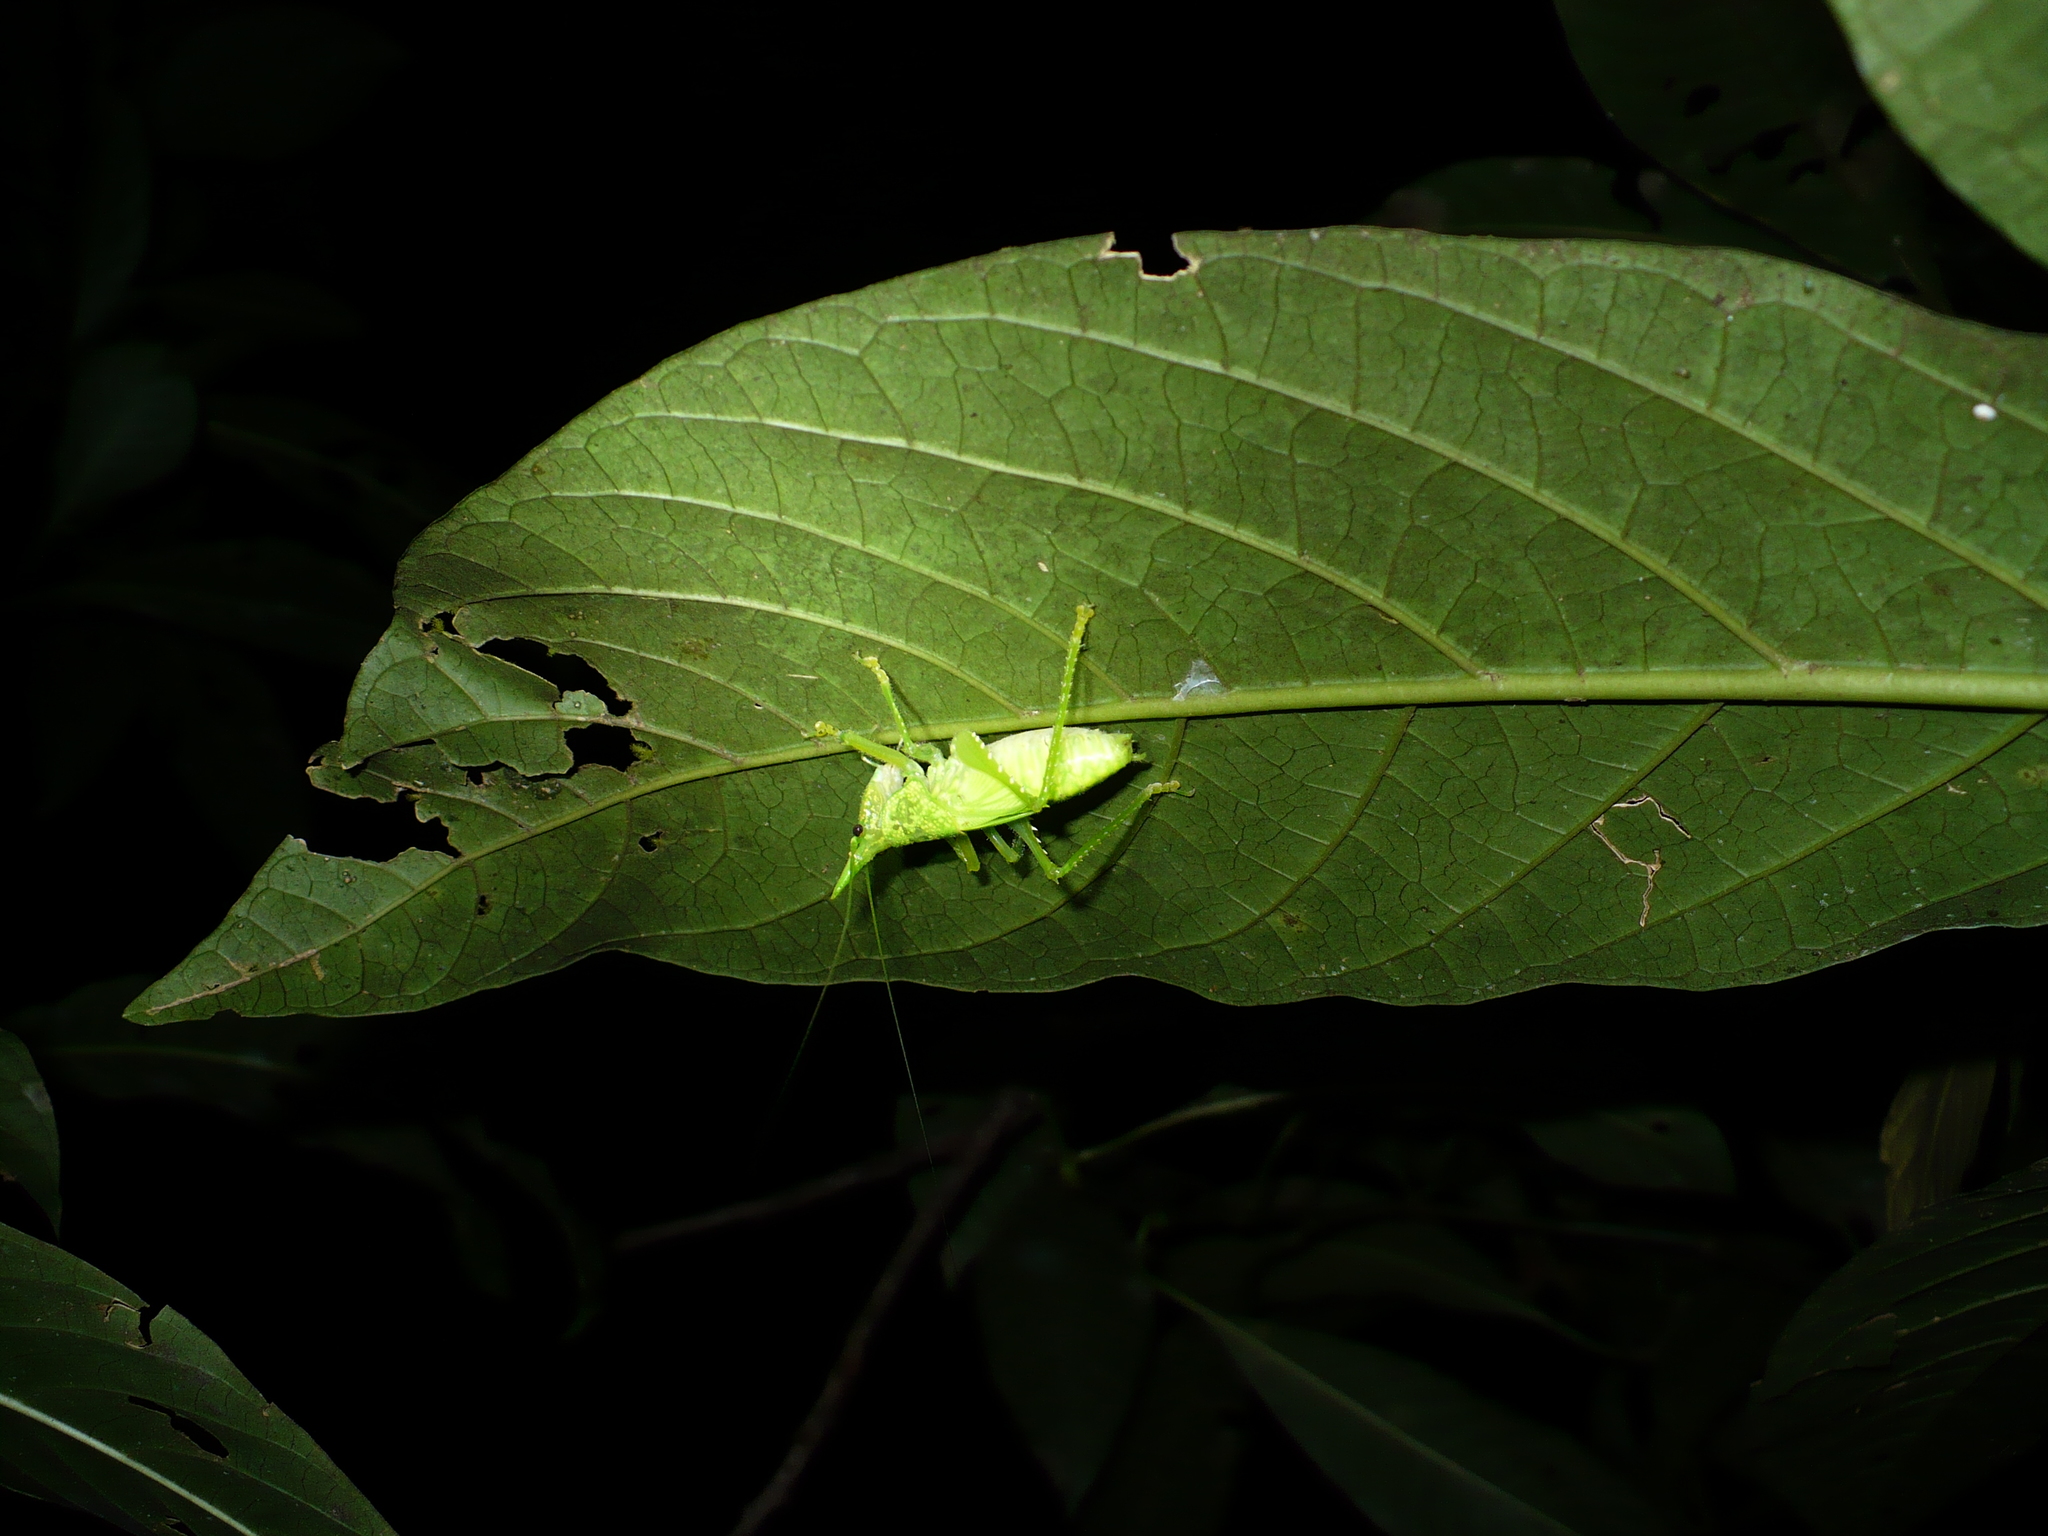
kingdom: Animalia
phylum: Arthropoda
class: Insecta
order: Orthoptera
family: Tettigoniidae
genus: Copiphora
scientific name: Copiphora rhinoceros
